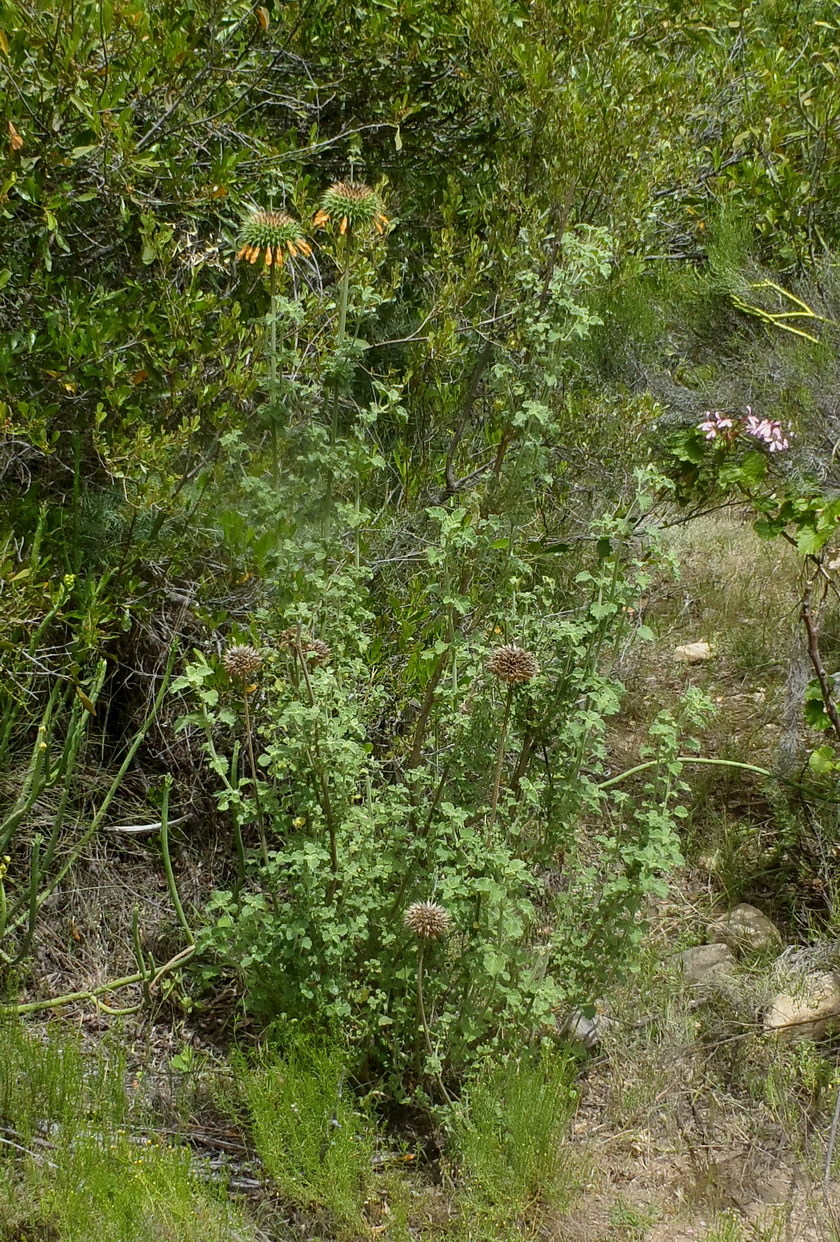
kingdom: Plantae
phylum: Tracheophyta
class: Magnoliopsida
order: Lamiales
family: Lamiaceae
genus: Leonotis
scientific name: Leonotis ocymifolia
